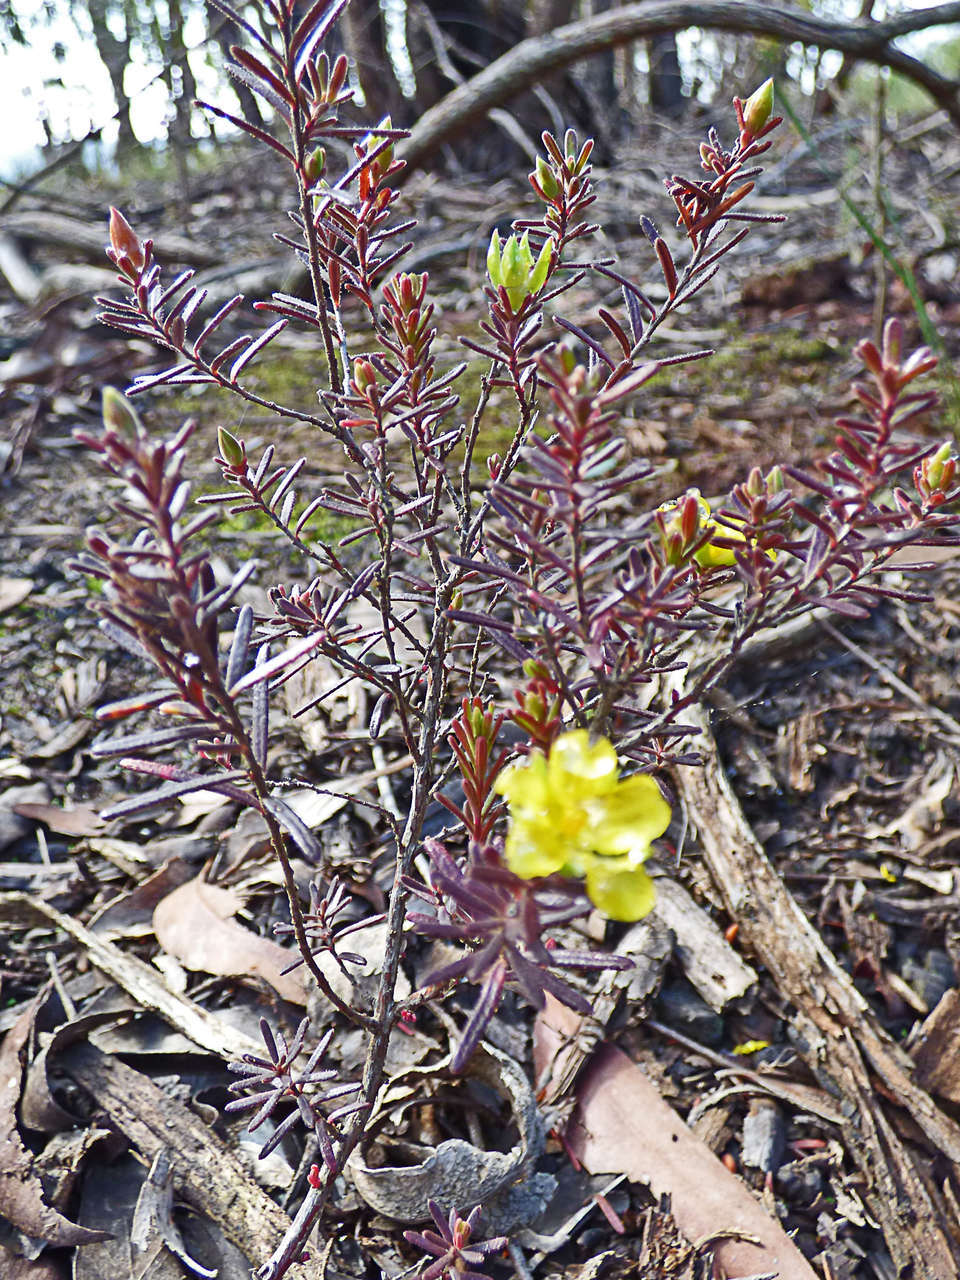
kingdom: Plantae
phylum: Tracheophyta
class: Magnoliopsida
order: Dilleniales
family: Dilleniaceae
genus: Hibbertia
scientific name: Hibbertia riparia
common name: Erect guinea-flower
